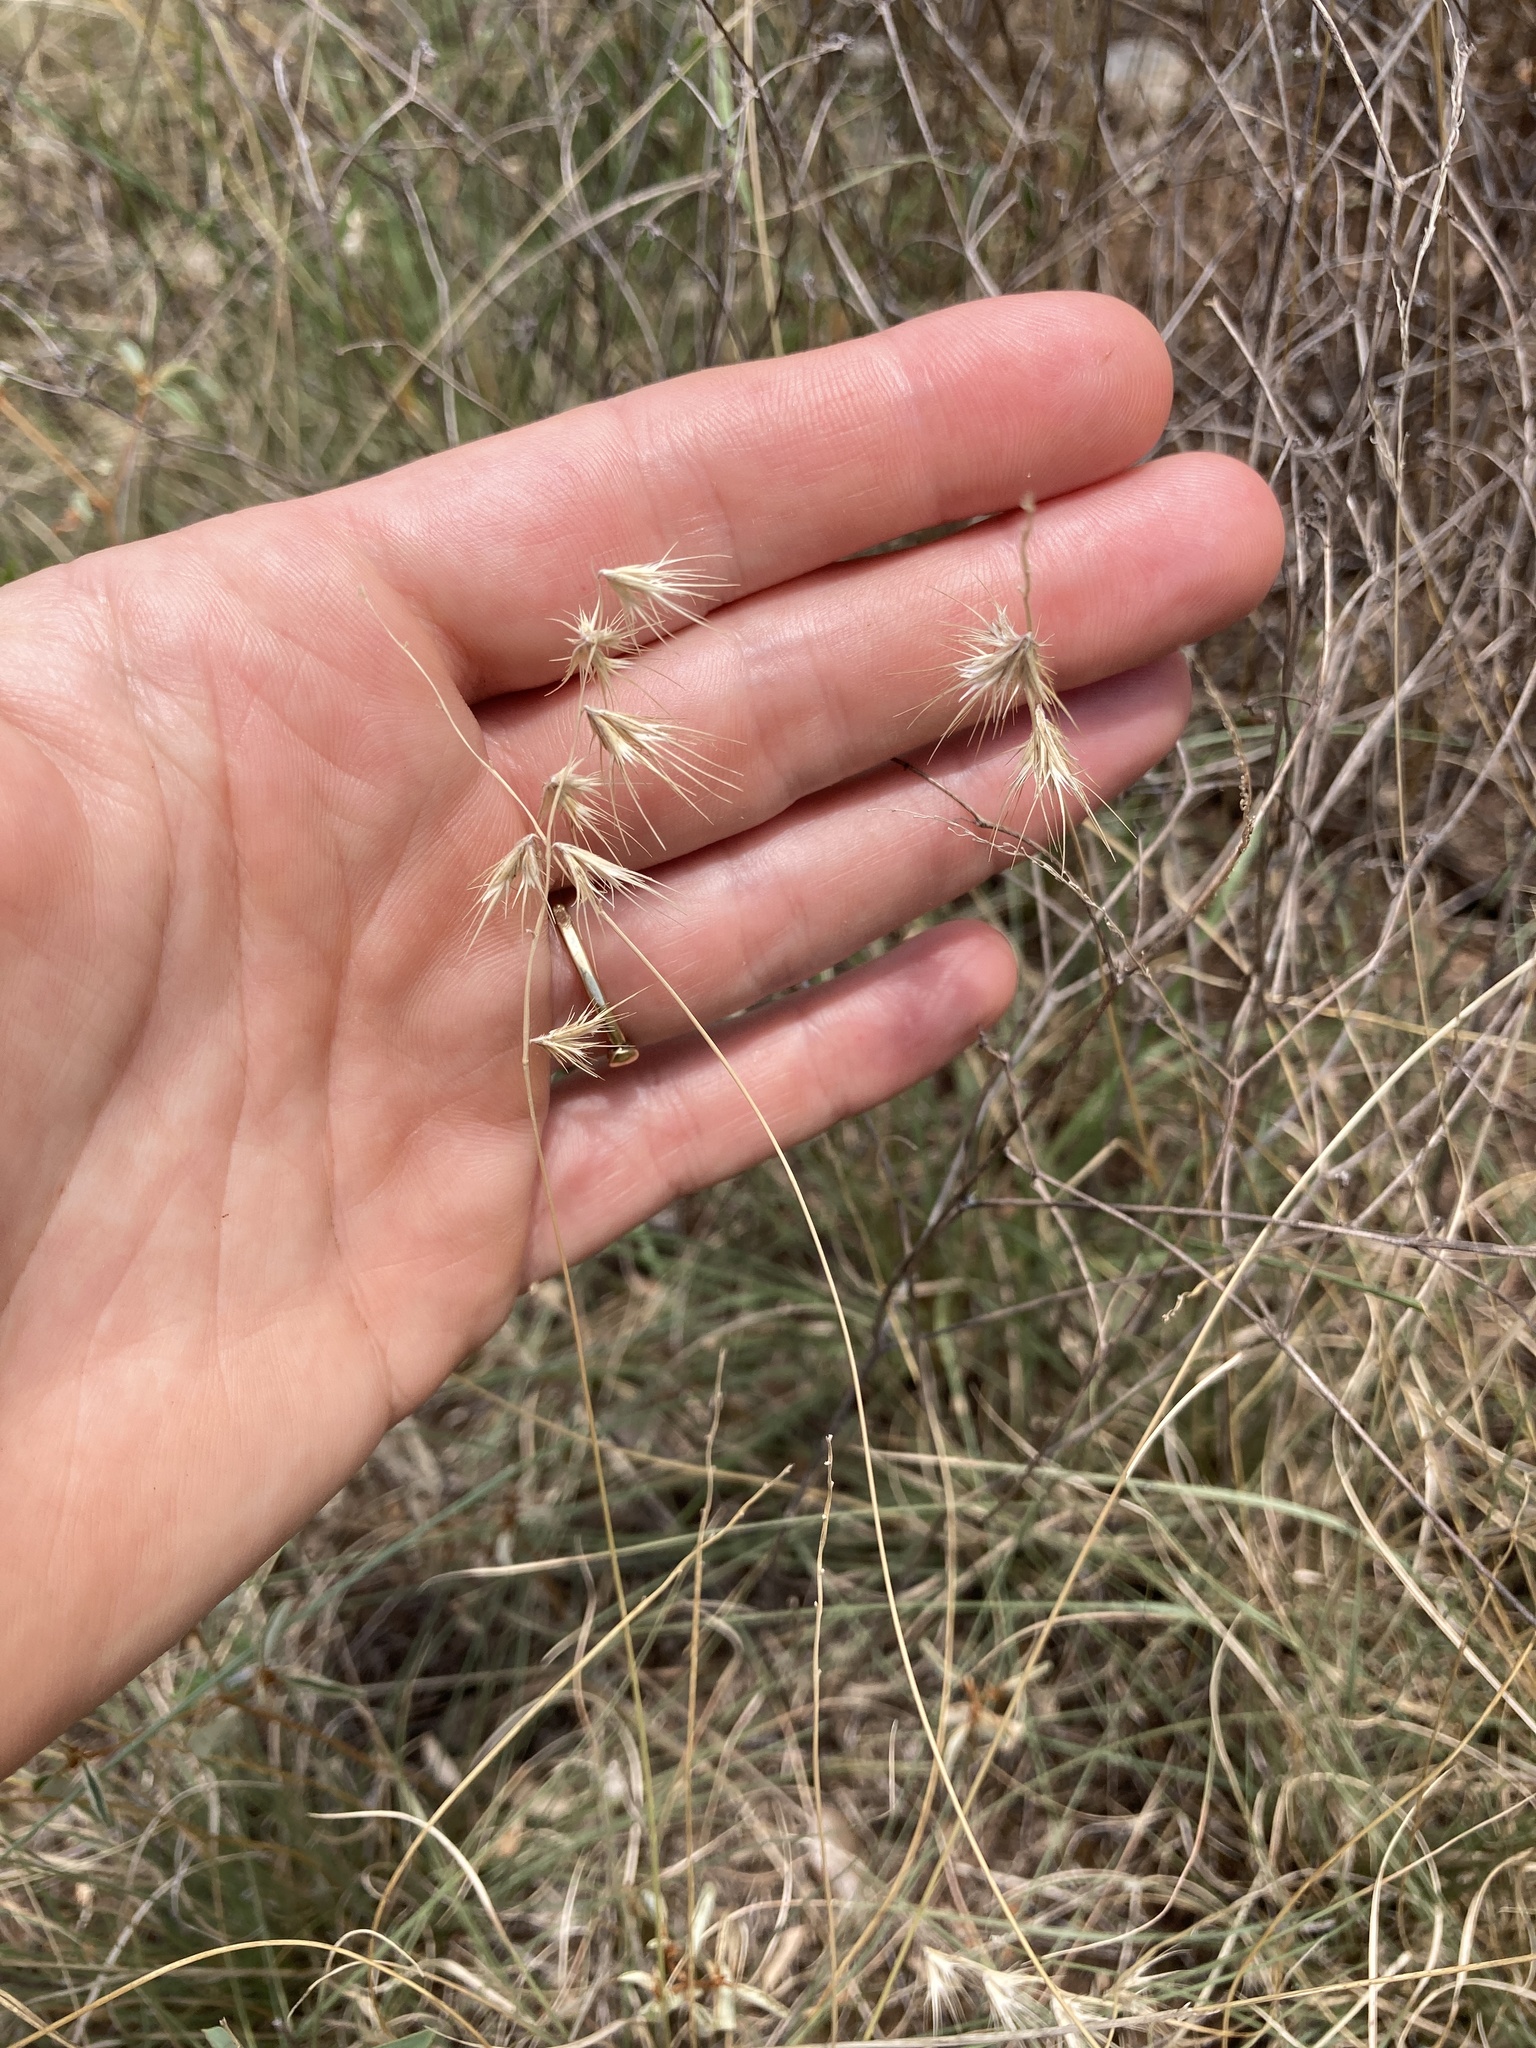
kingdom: Plantae
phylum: Tracheophyta
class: Liliopsida
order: Poales
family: Poaceae
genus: Bouteloua
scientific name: Bouteloua rigidiseta
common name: Texas grama
